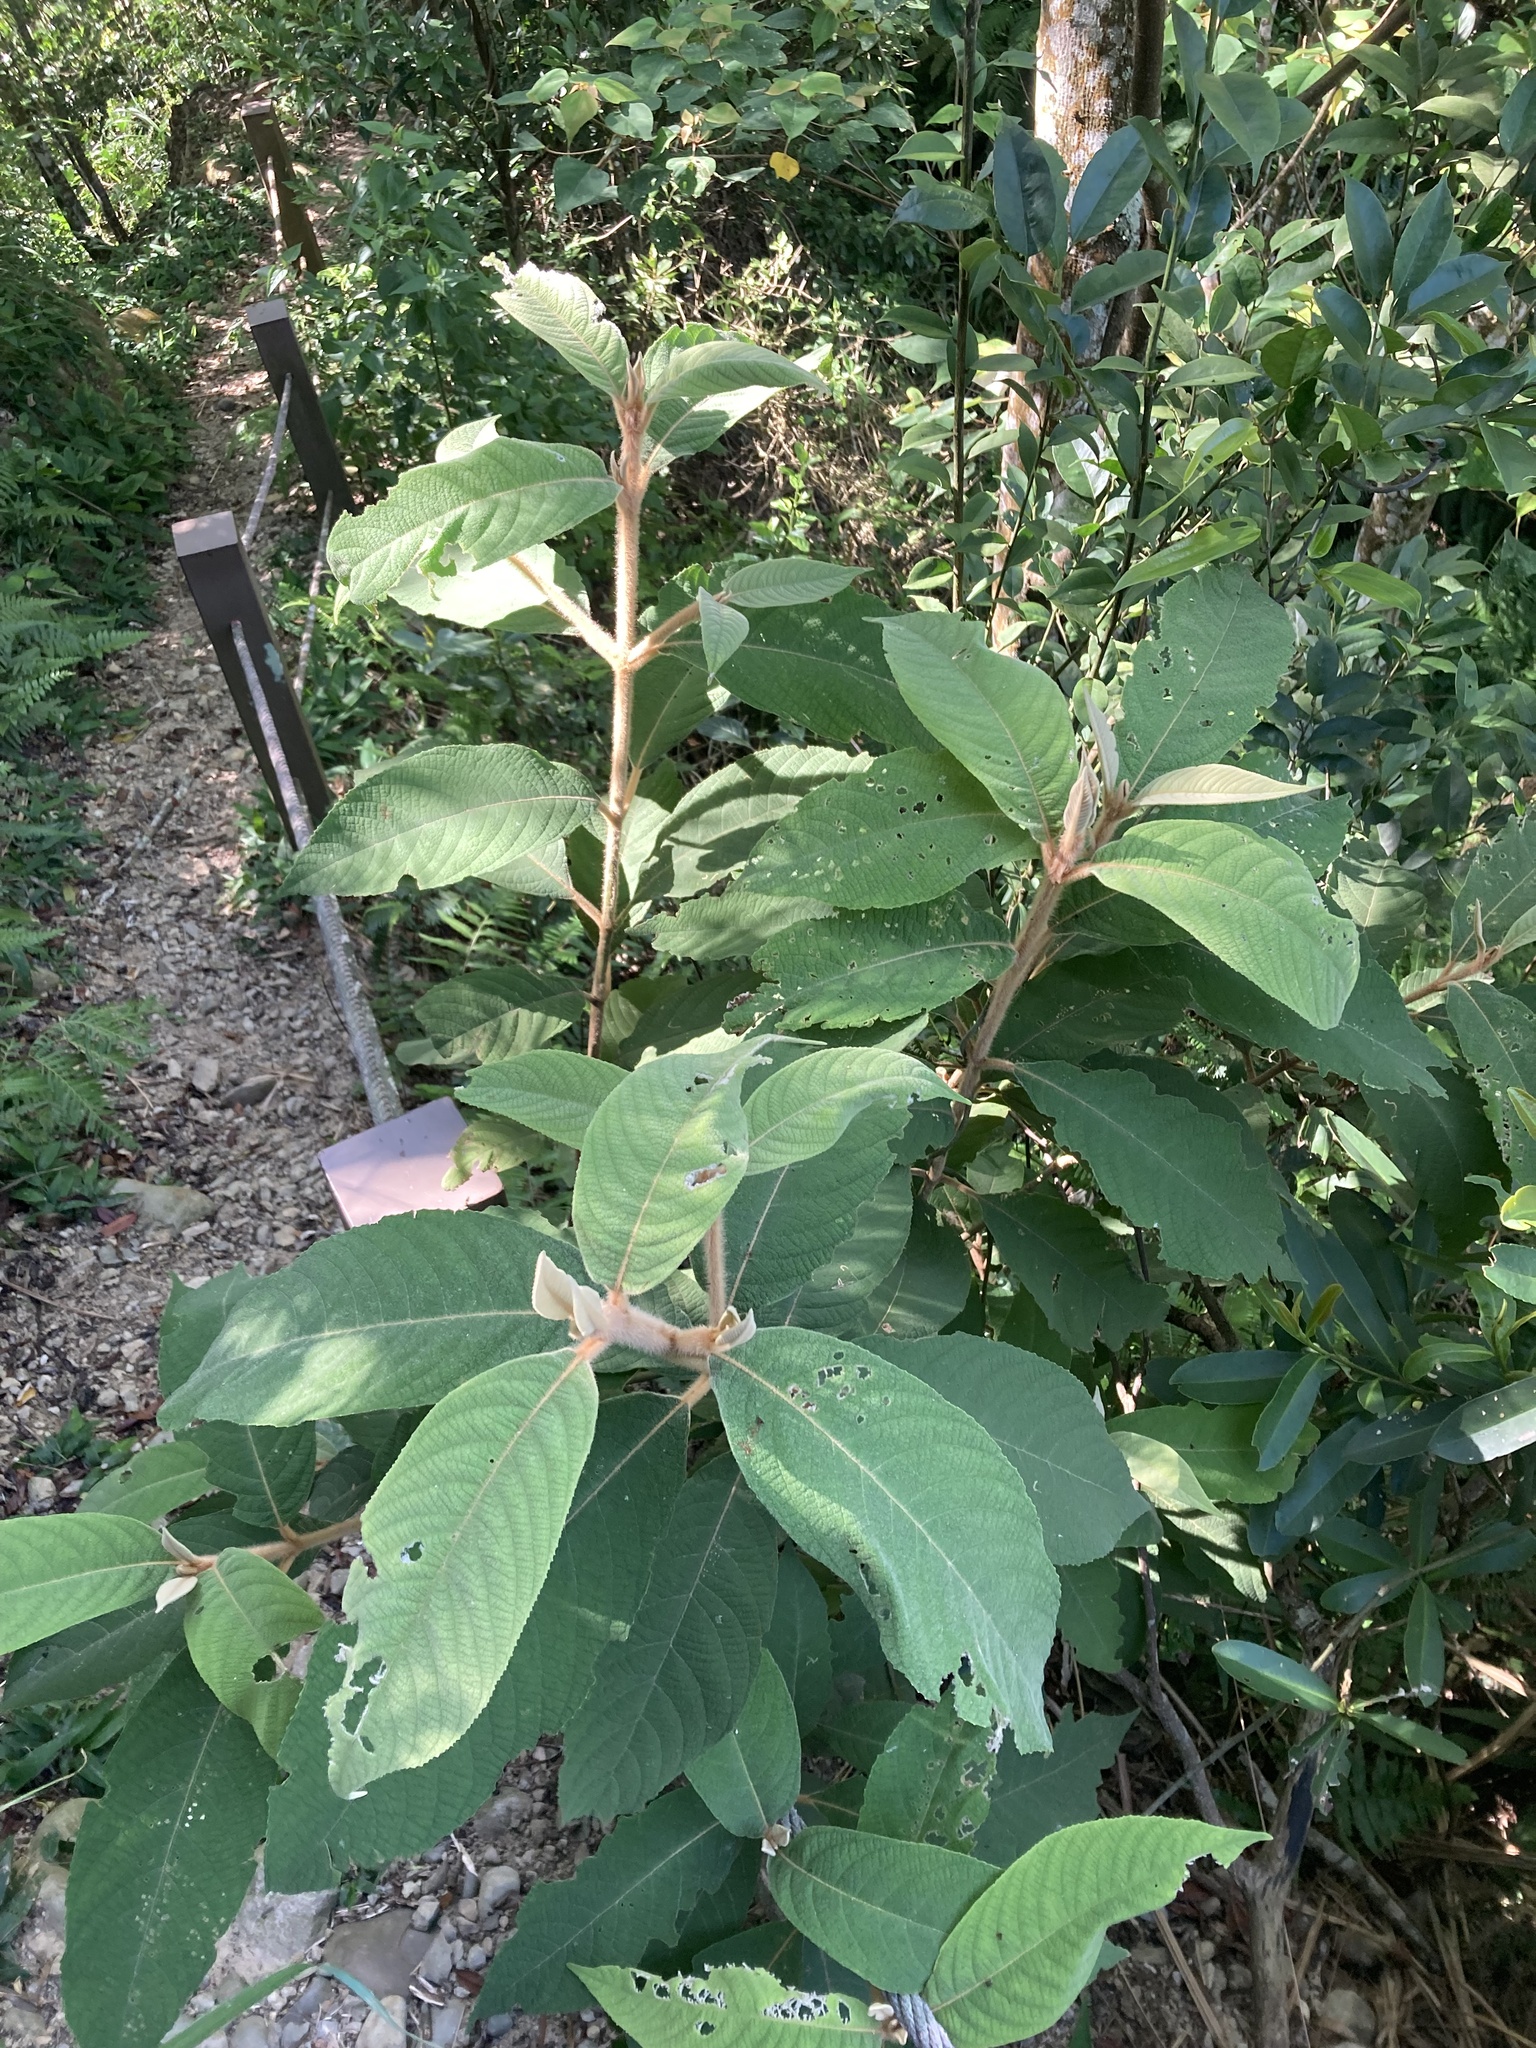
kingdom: Plantae
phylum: Tracheophyta
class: Magnoliopsida
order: Lamiales
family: Lamiaceae
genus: Callicarpa
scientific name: Callicarpa kochiana
